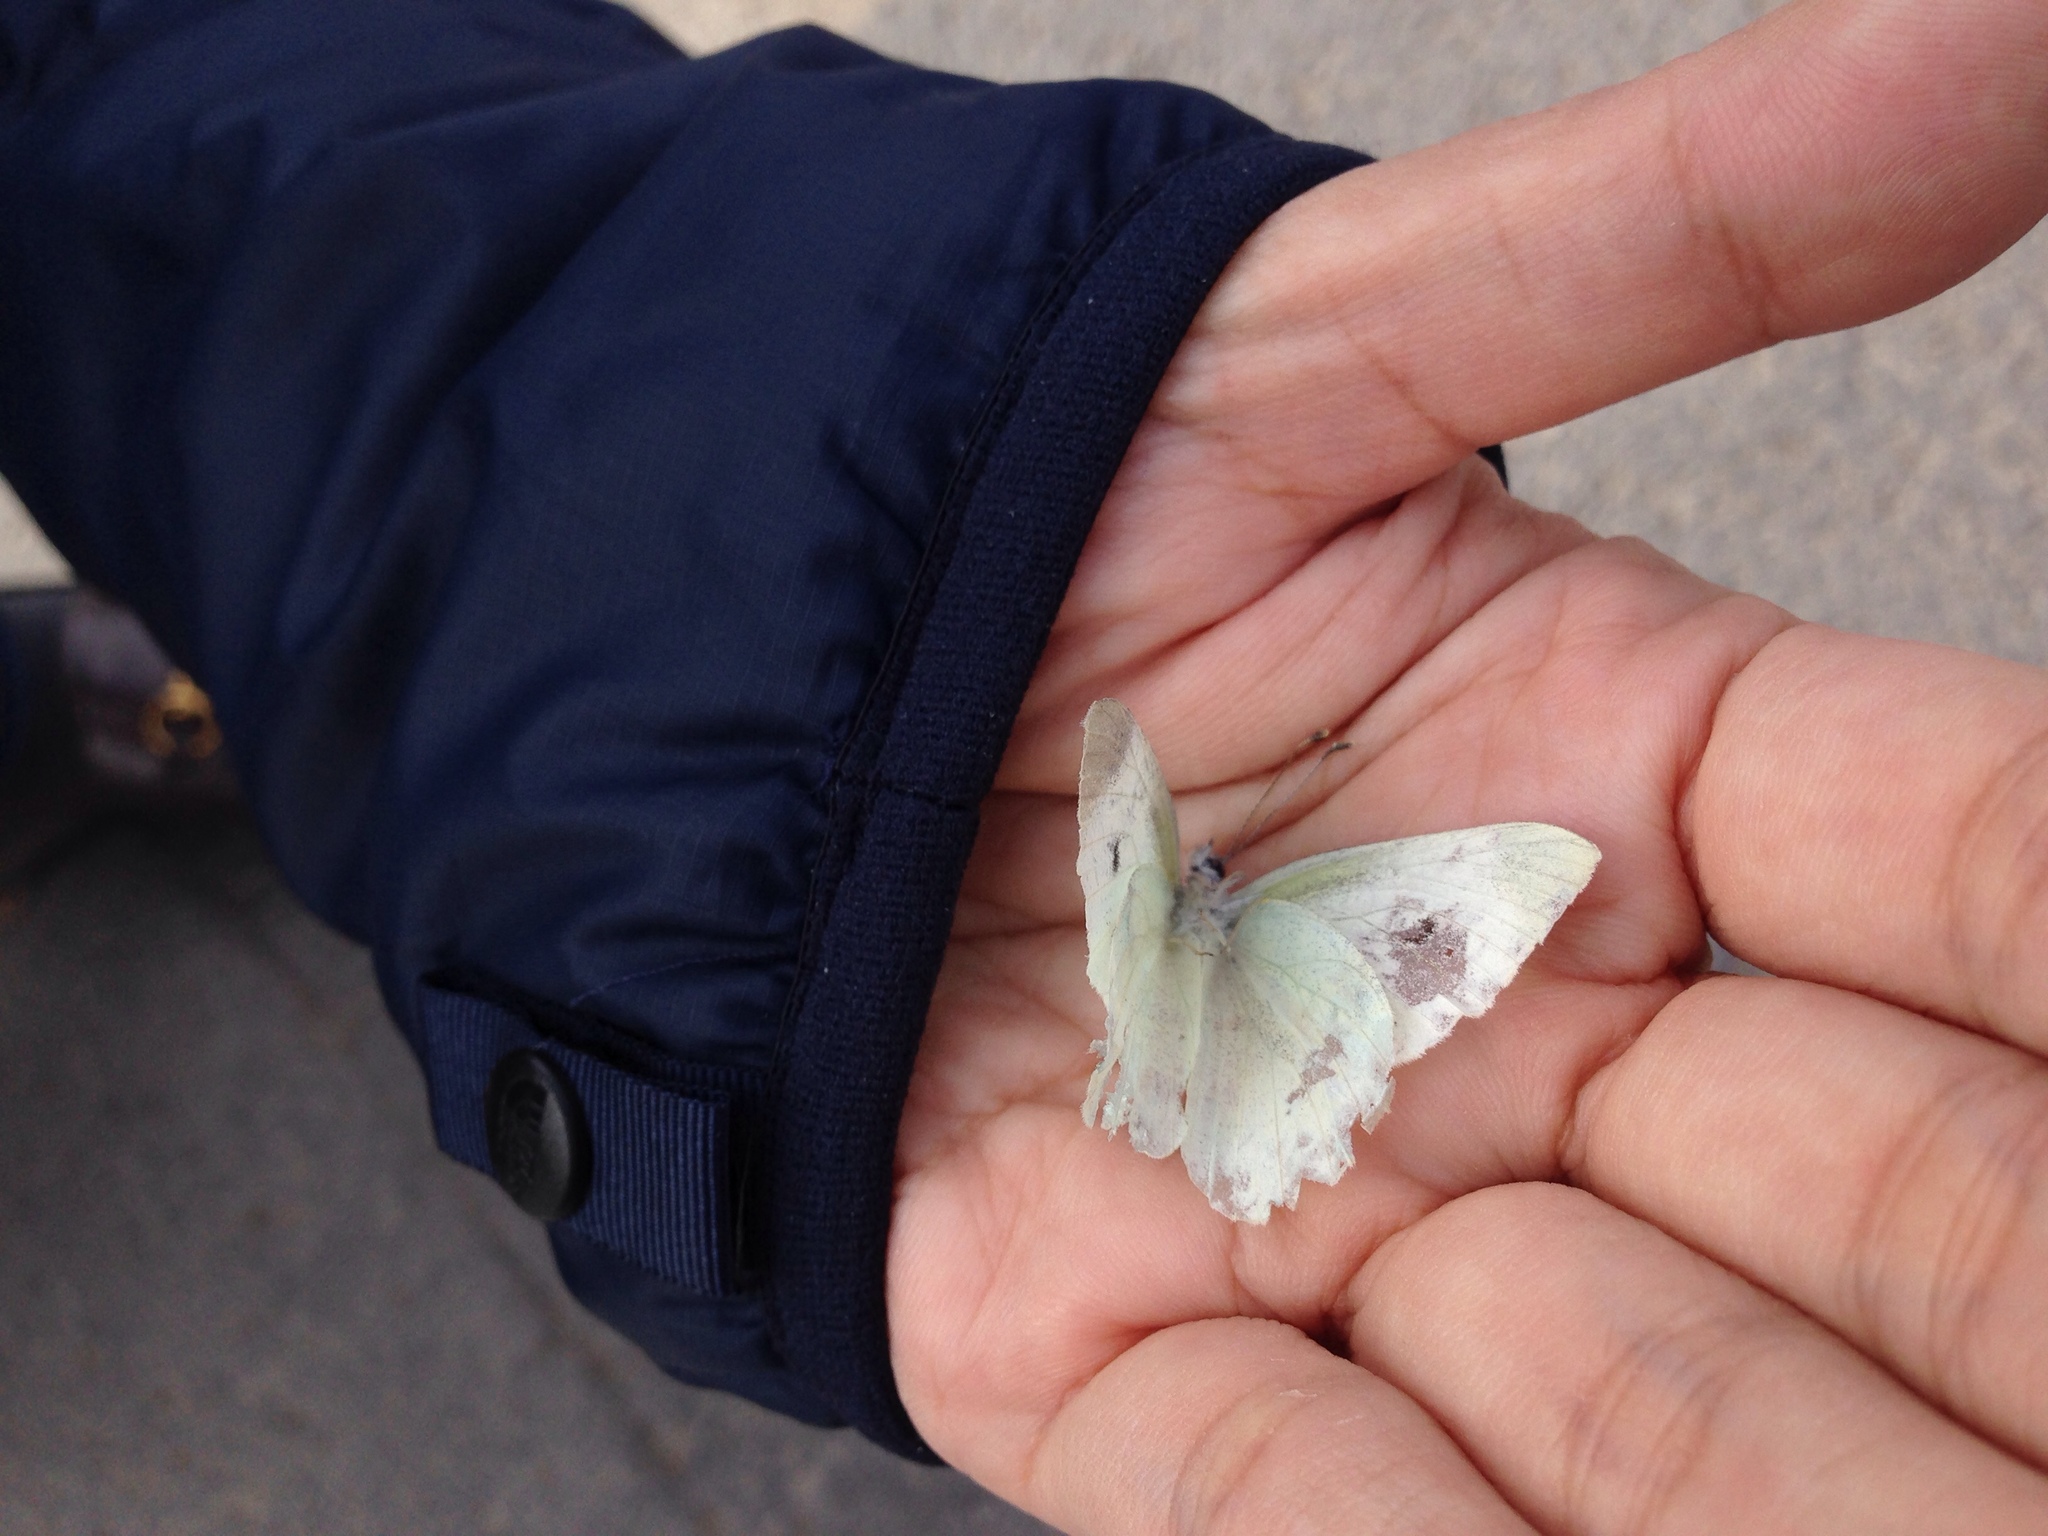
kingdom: Animalia
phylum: Arthropoda
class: Insecta
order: Lepidoptera
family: Pieridae
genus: Pieris
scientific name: Pieris rapae
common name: Small white
